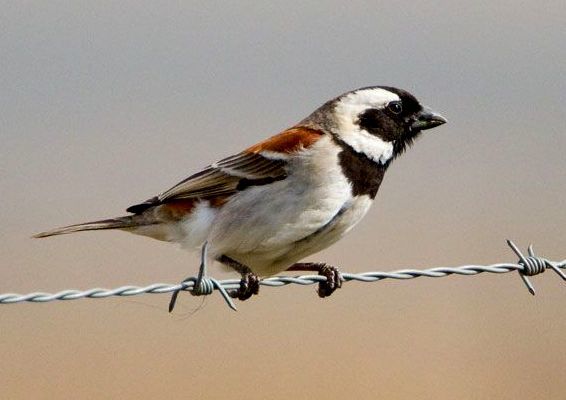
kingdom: Animalia
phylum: Chordata
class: Aves
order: Passeriformes
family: Passeridae
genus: Passer
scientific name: Passer melanurus
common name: Cape sparrow
